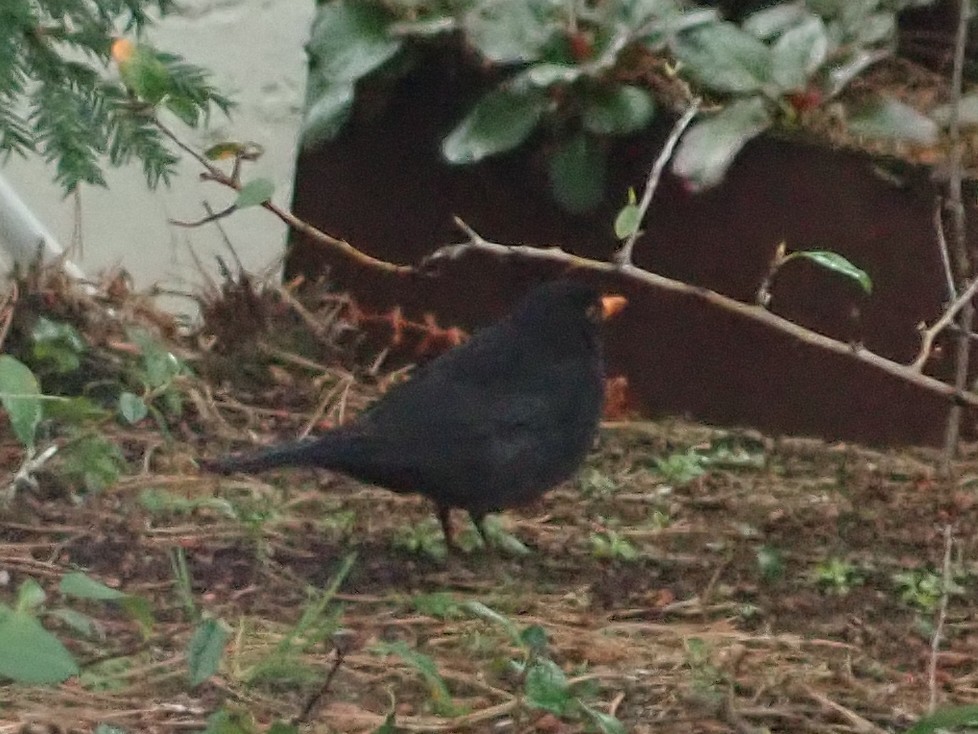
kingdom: Animalia
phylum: Chordata
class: Aves
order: Passeriformes
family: Turdidae
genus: Turdus
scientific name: Turdus merula
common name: Common blackbird
